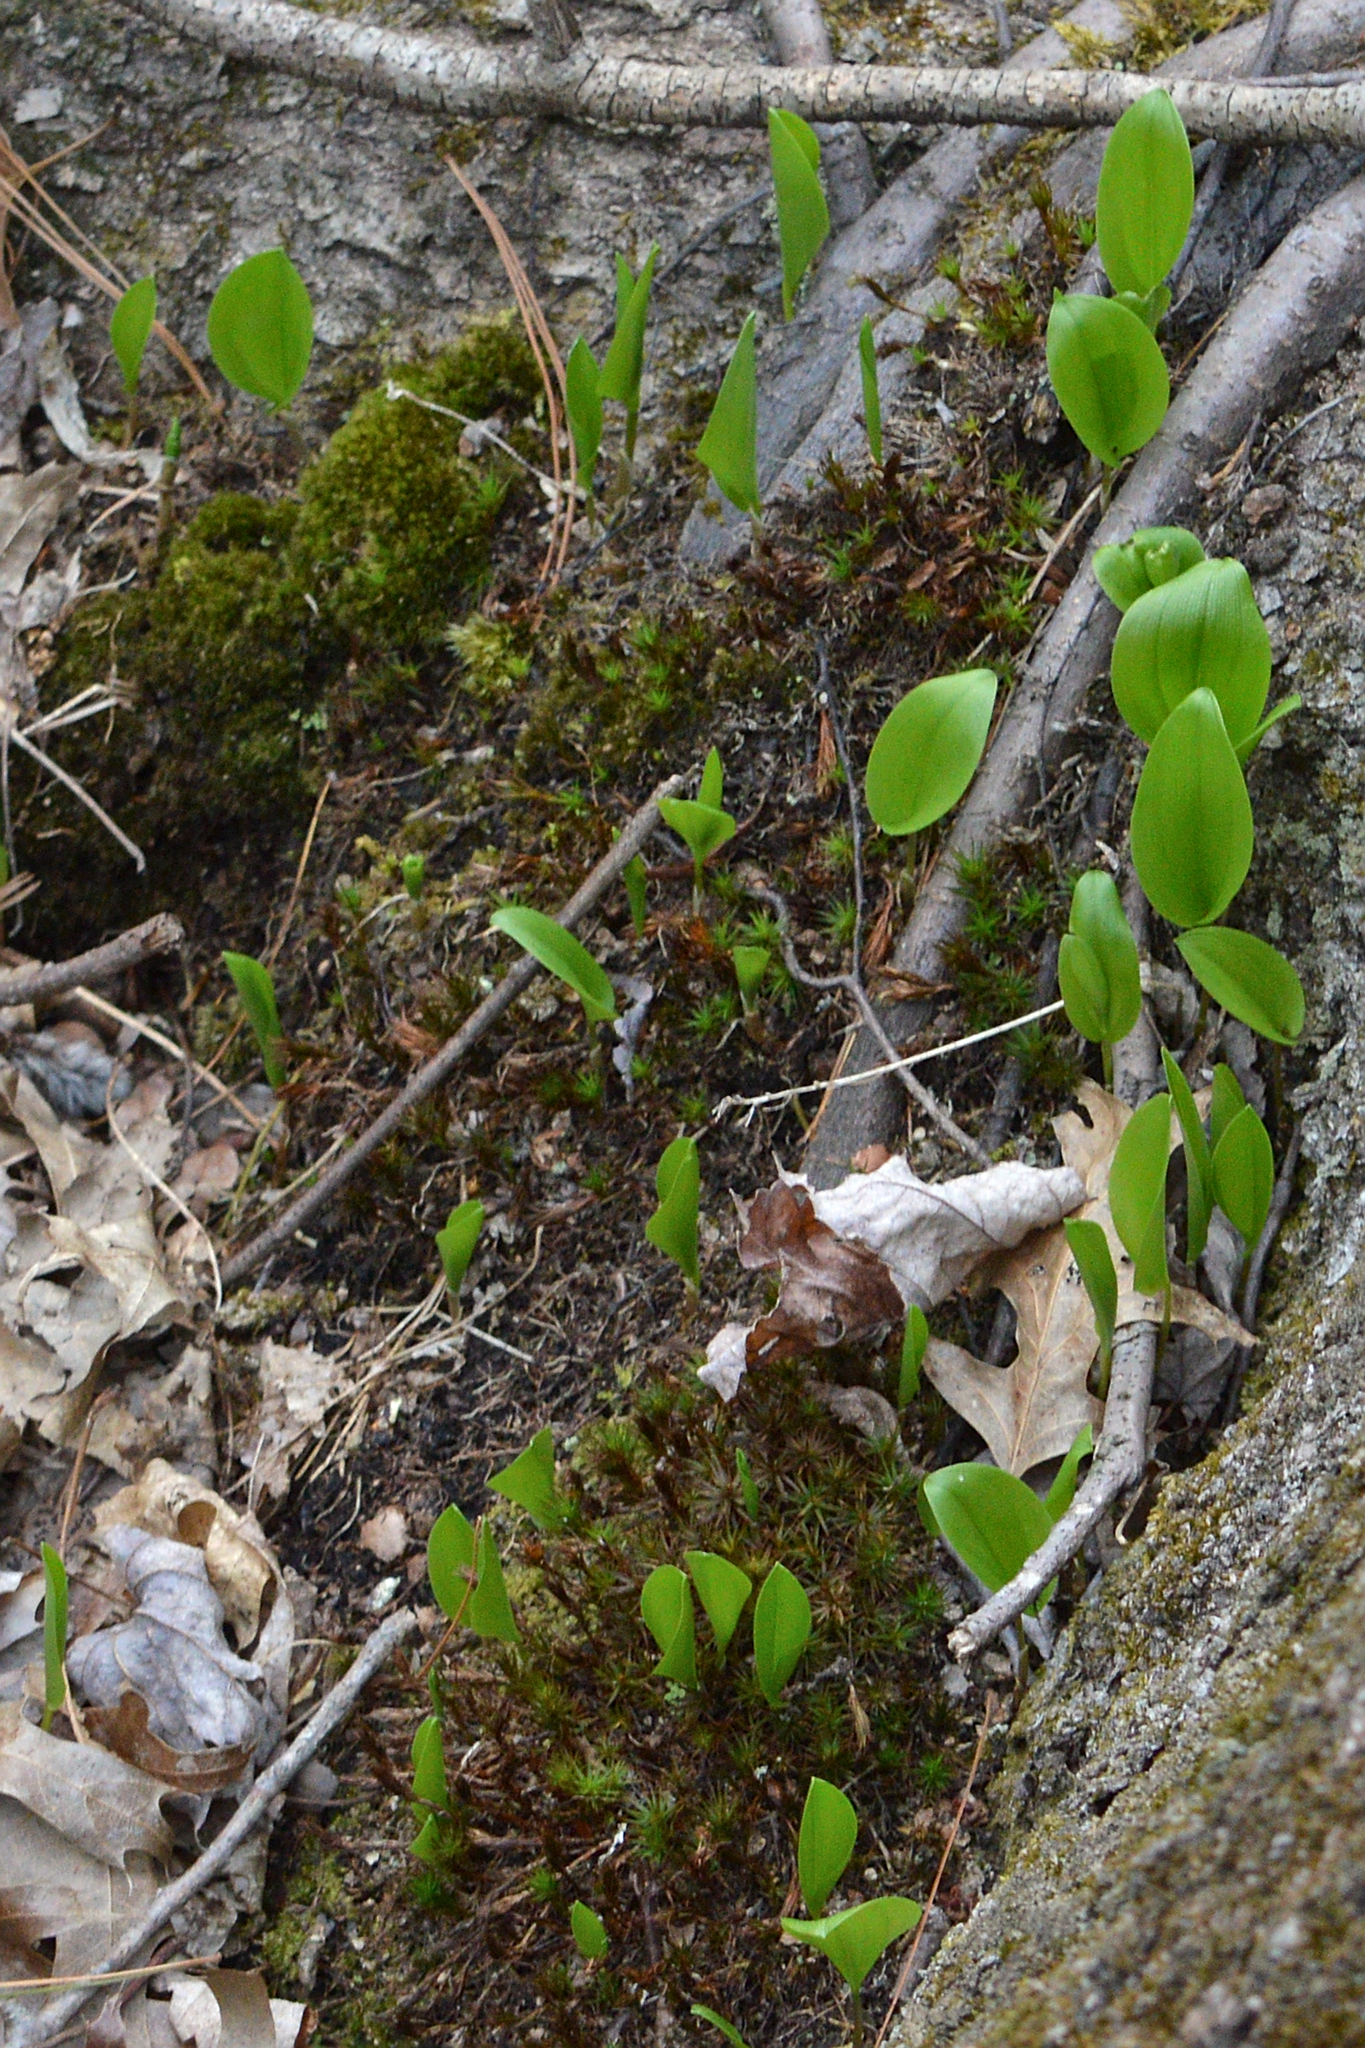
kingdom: Plantae
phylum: Tracheophyta
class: Liliopsida
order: Asparagales
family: Asparagaceae
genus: Maianthemum
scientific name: Maianthemum canadense
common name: False lily-of-the-valley
